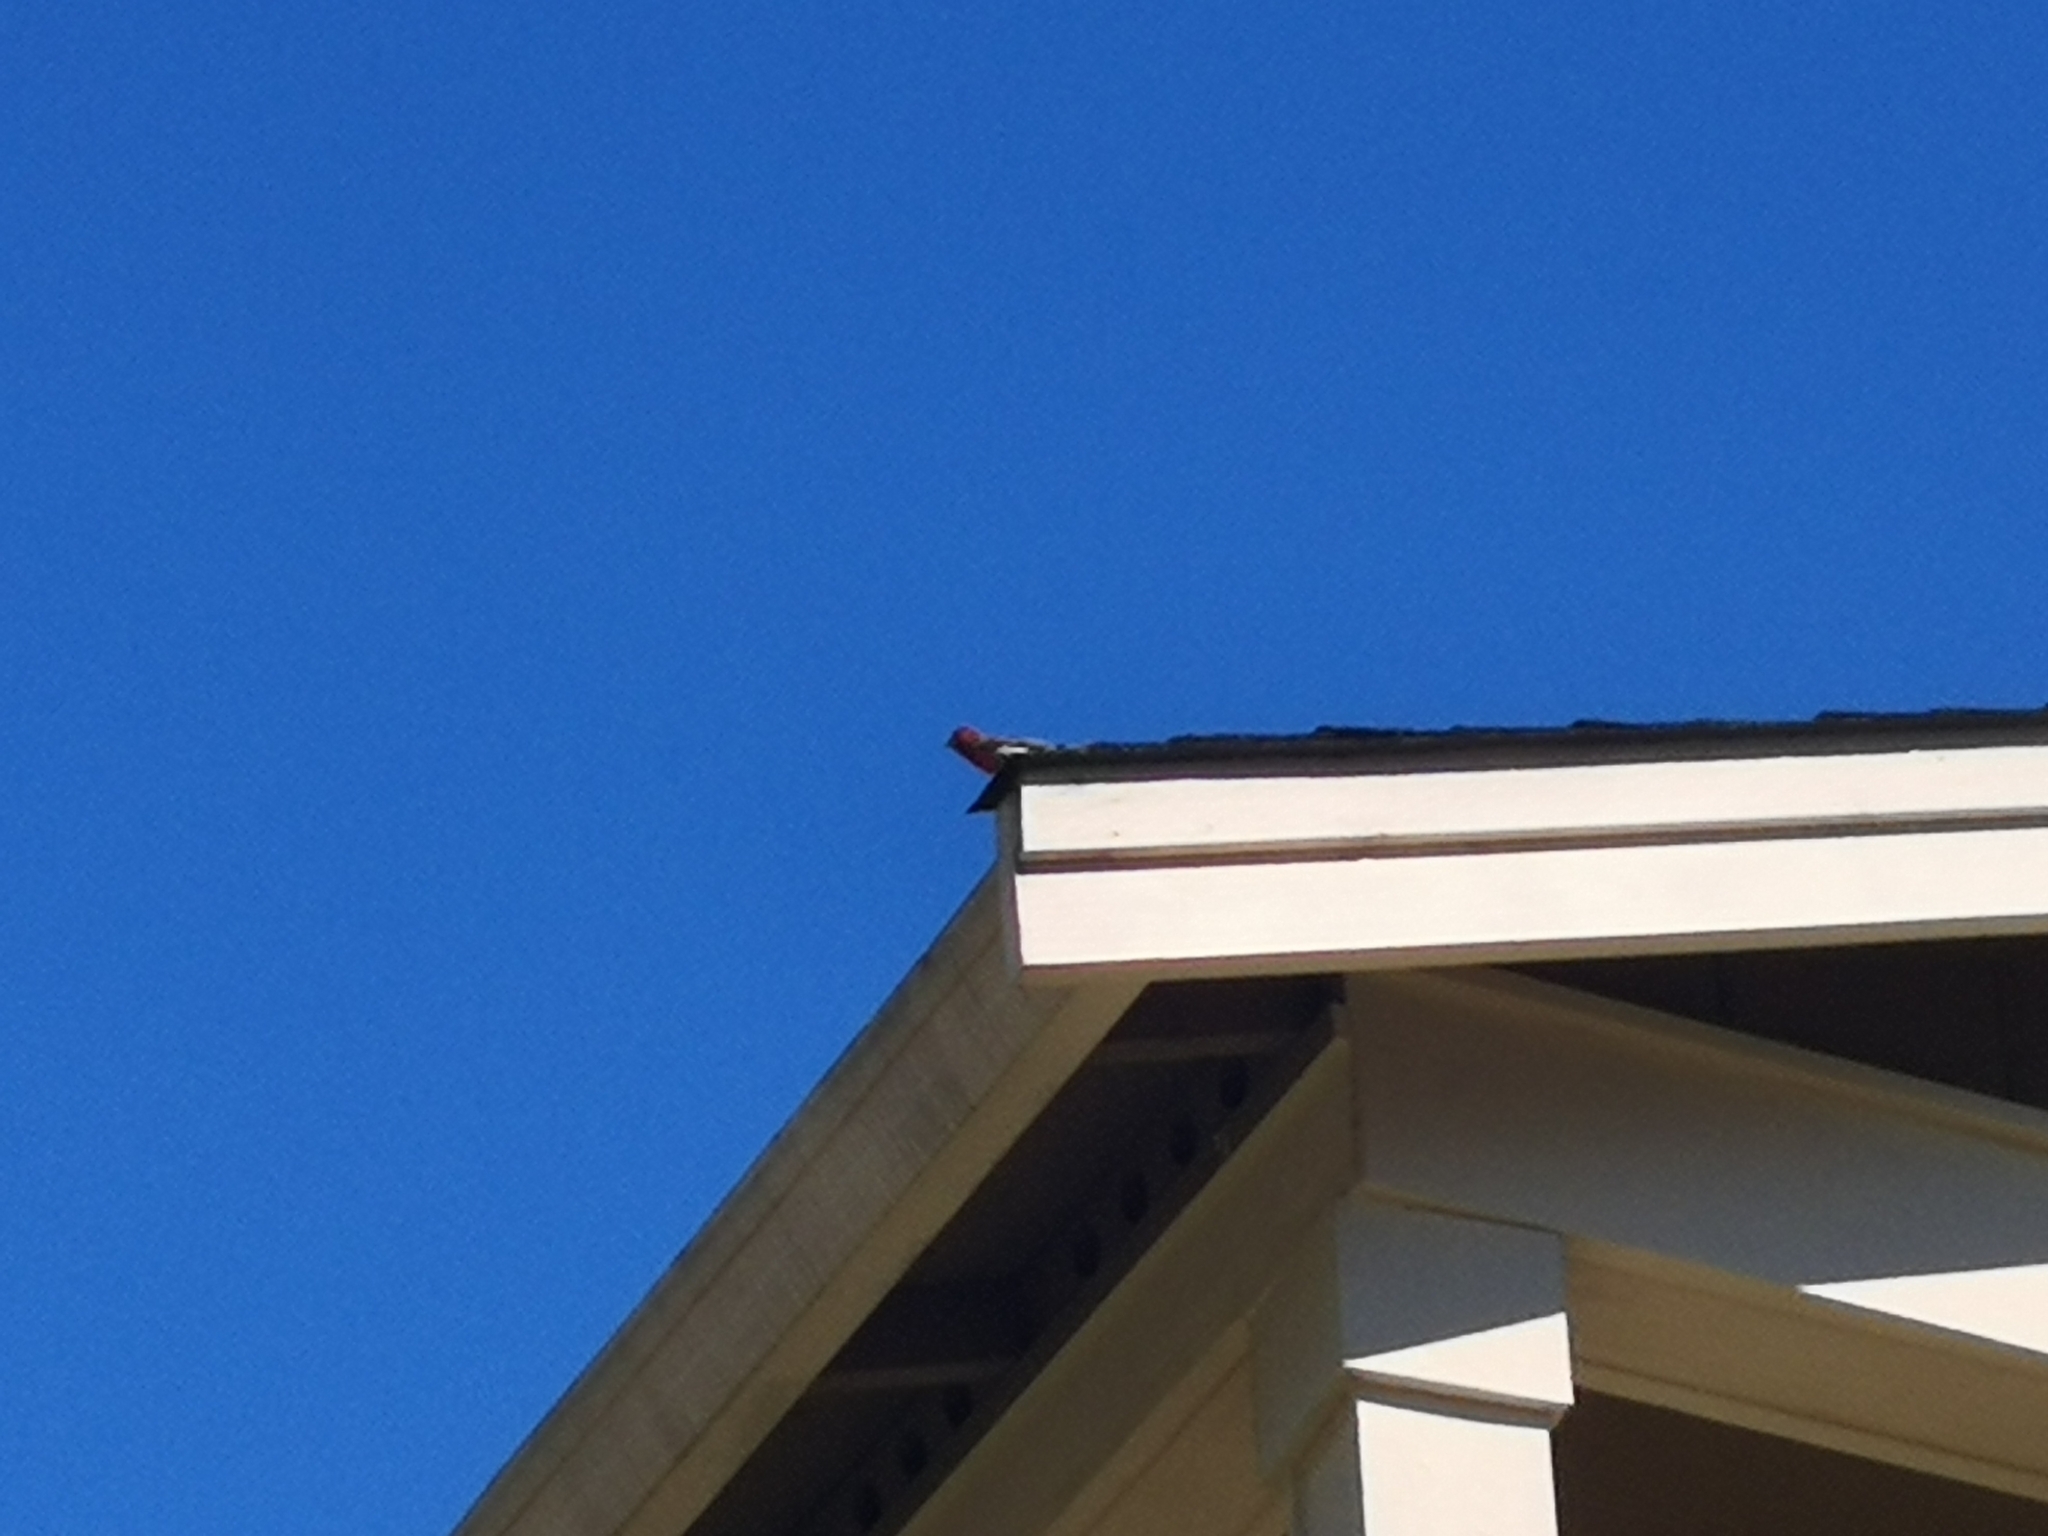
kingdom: Animalia
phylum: Chordata
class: Aves
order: Passeriformes
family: Fringillidae
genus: Loxia
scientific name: Loxia curvirostra
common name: Red crossbill
